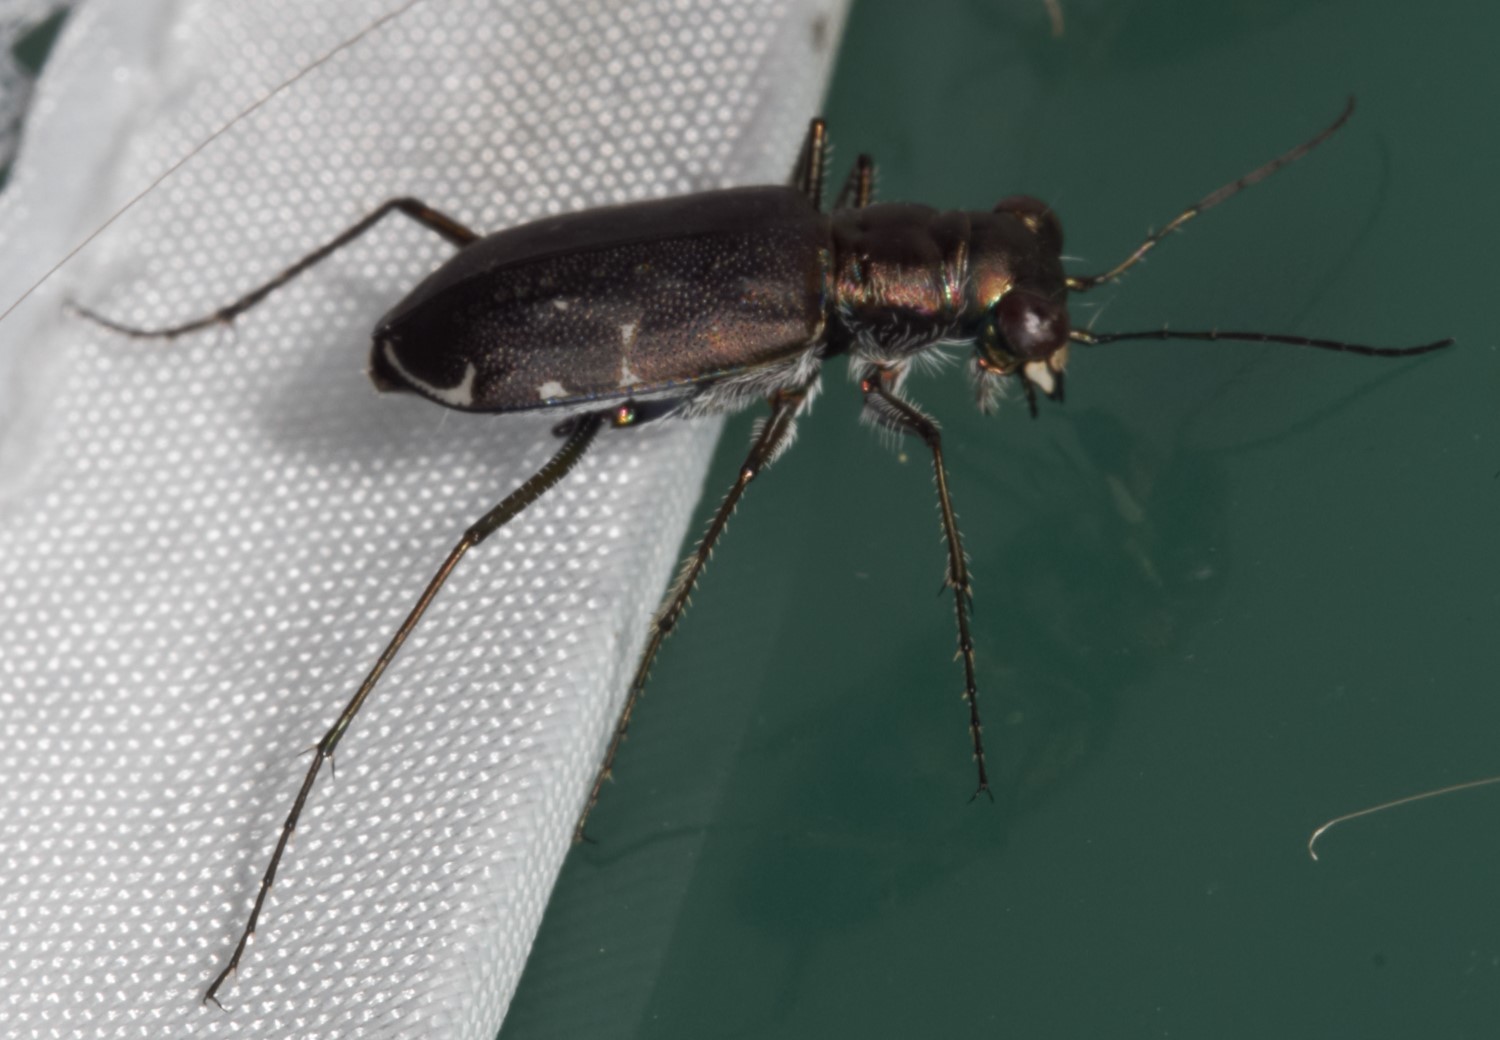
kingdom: Animalia
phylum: Arthropoda
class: Insecta
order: Coleoptera
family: Carabidae
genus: Cicindela
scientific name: Cicindela punctulata
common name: Punctured tiger beetle
